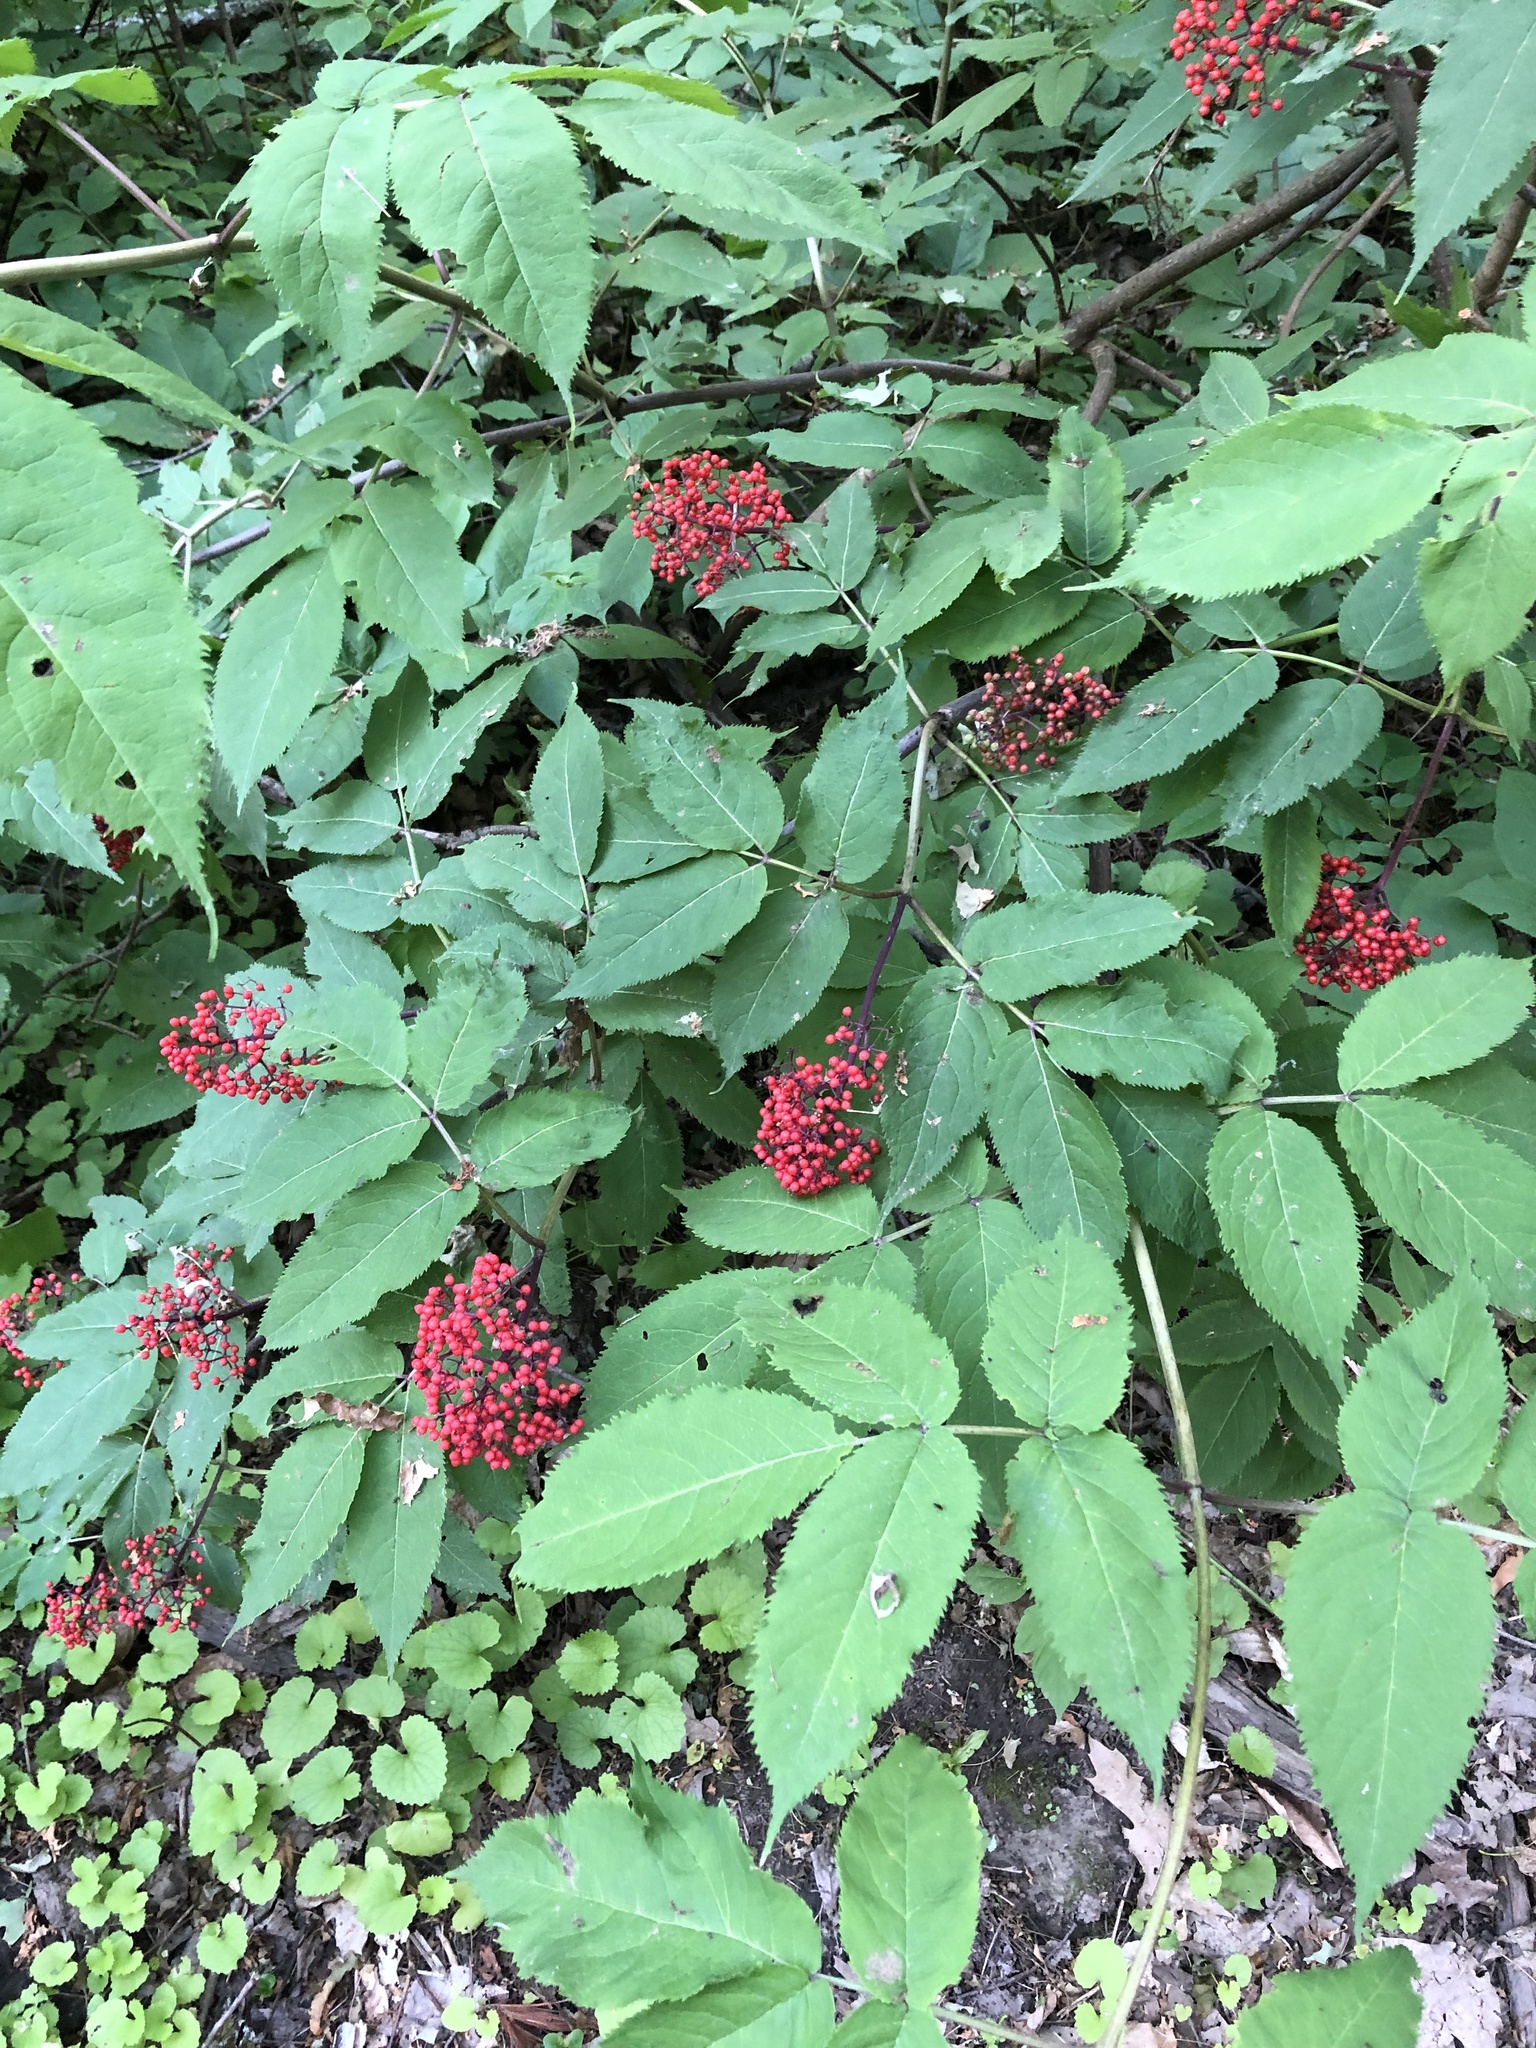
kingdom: Plantae
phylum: Tracheophyta
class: Magnoliopsida
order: Dipsacales
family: Viburnaceae
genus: Sambucus
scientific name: Sambucus racemosa
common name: Red-berried elder
